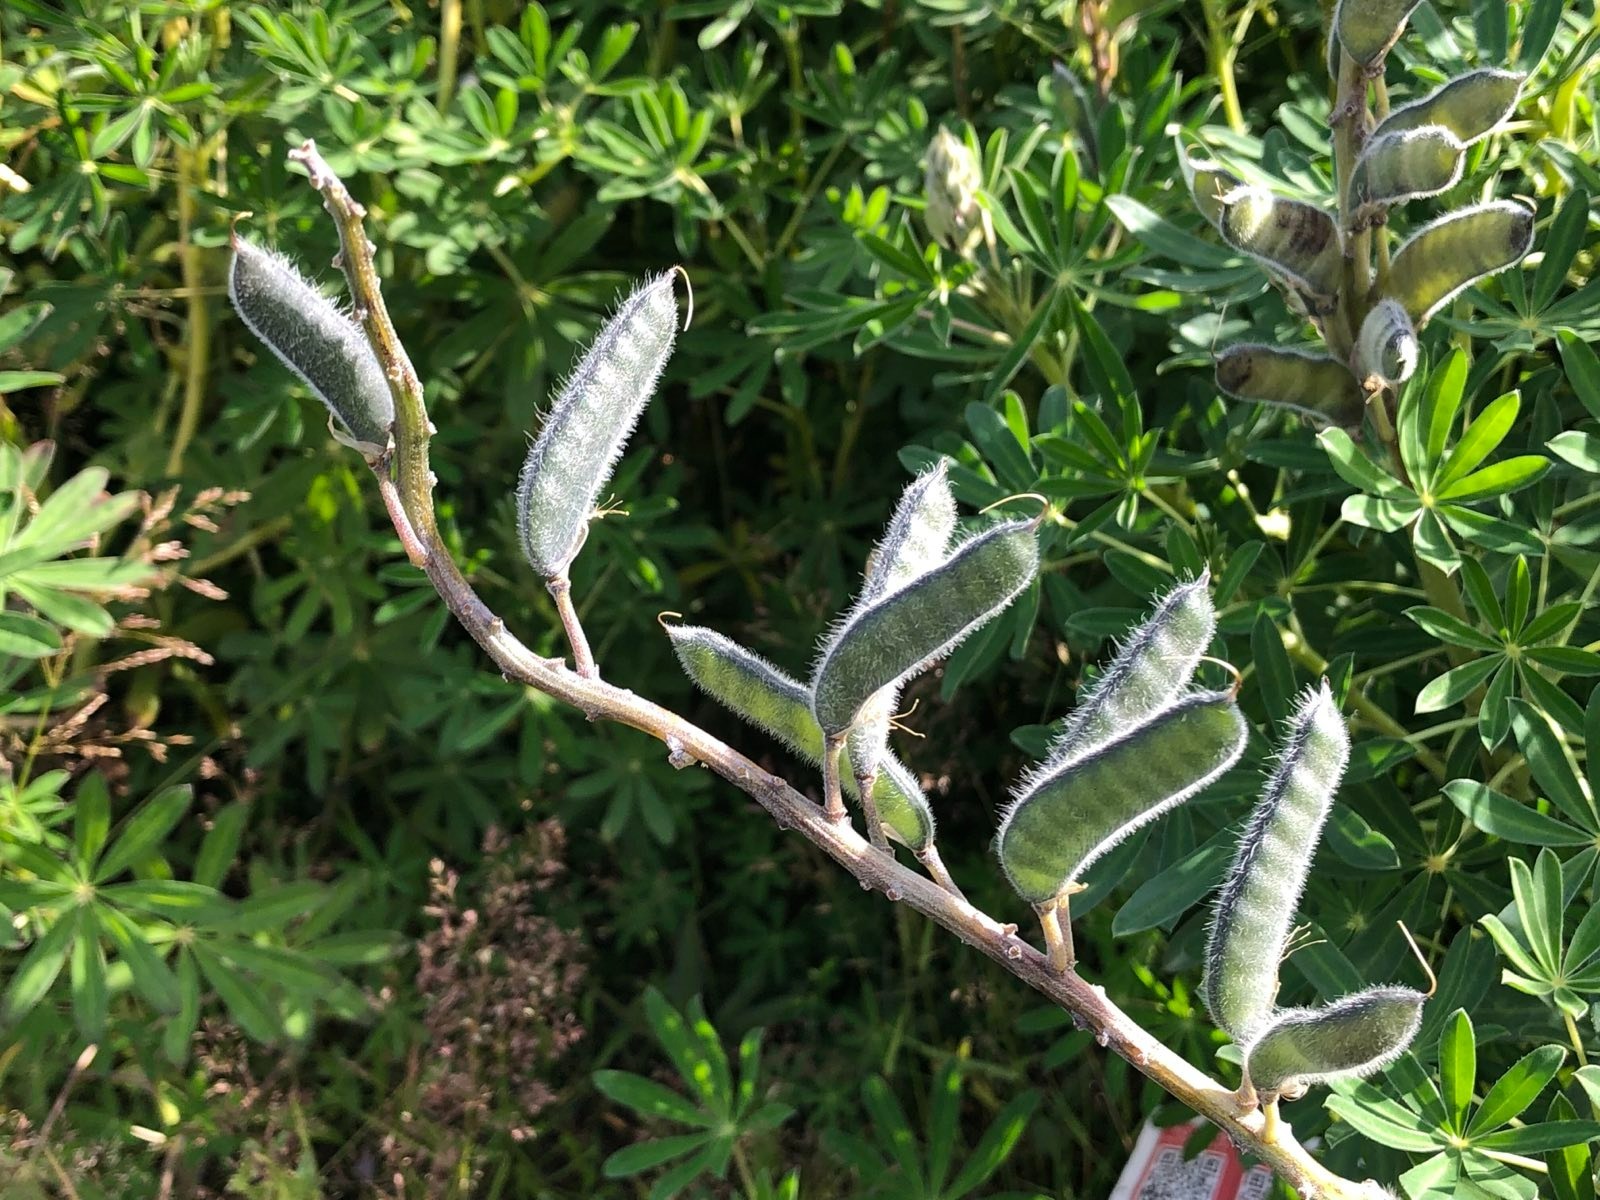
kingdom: Plantae
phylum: Tracheophyta
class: Magnoliopsida
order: Fabales
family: Fabaceae
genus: Lupinus
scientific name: Lupinus nootkatensis
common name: Nootka lupine
